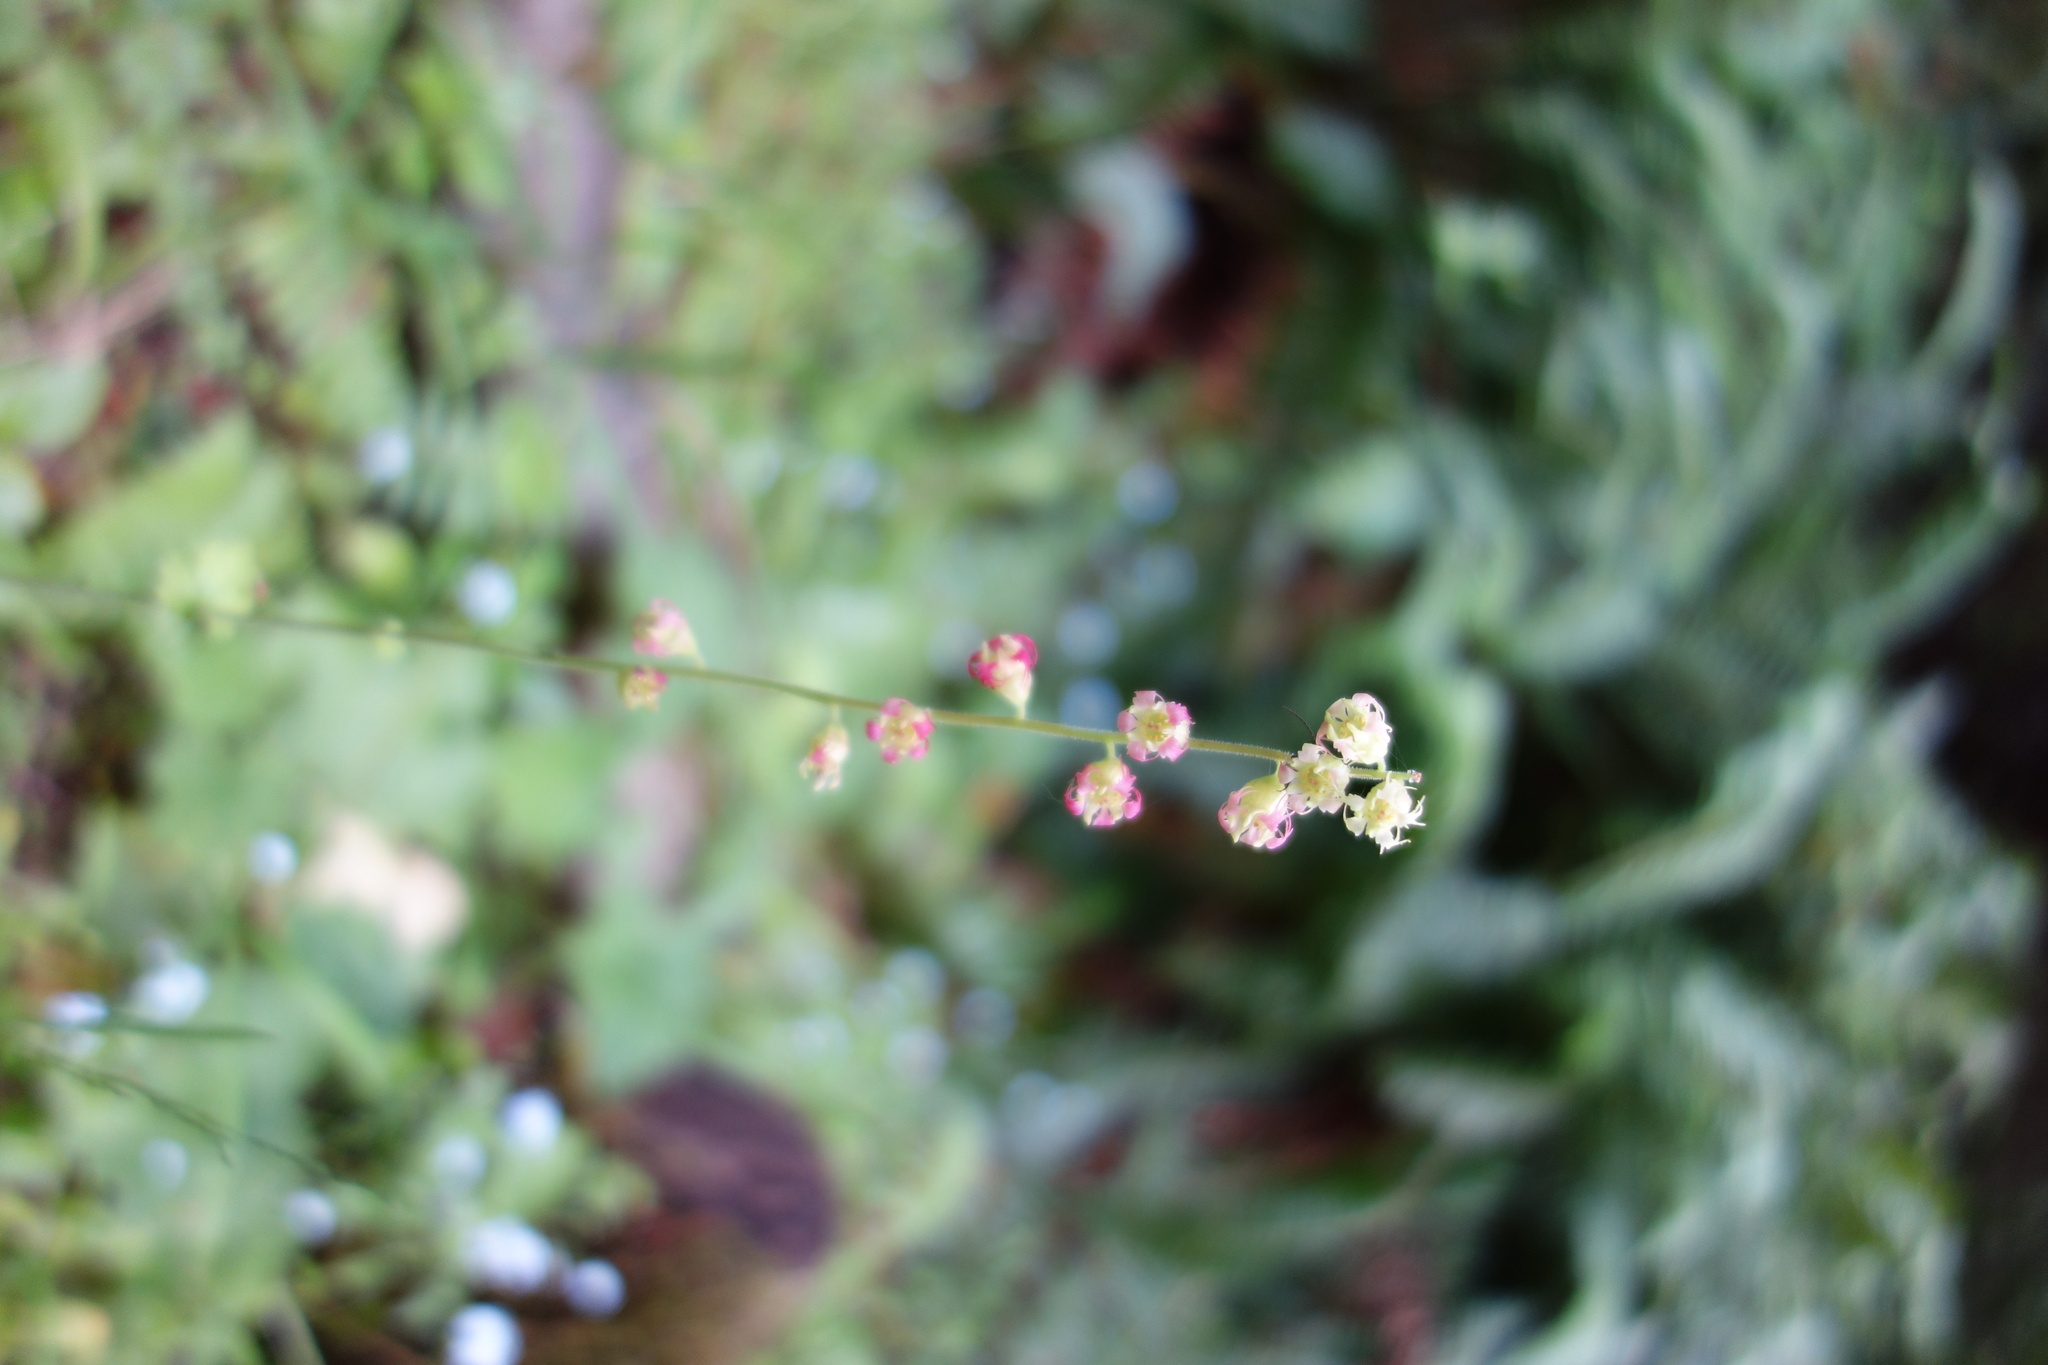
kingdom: Plantae
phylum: Tracheophyta
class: Magnoliopsida
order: Saxifragales
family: Saxifragaceae
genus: Tellima
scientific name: Tellima grandiflora
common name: Fringecups
